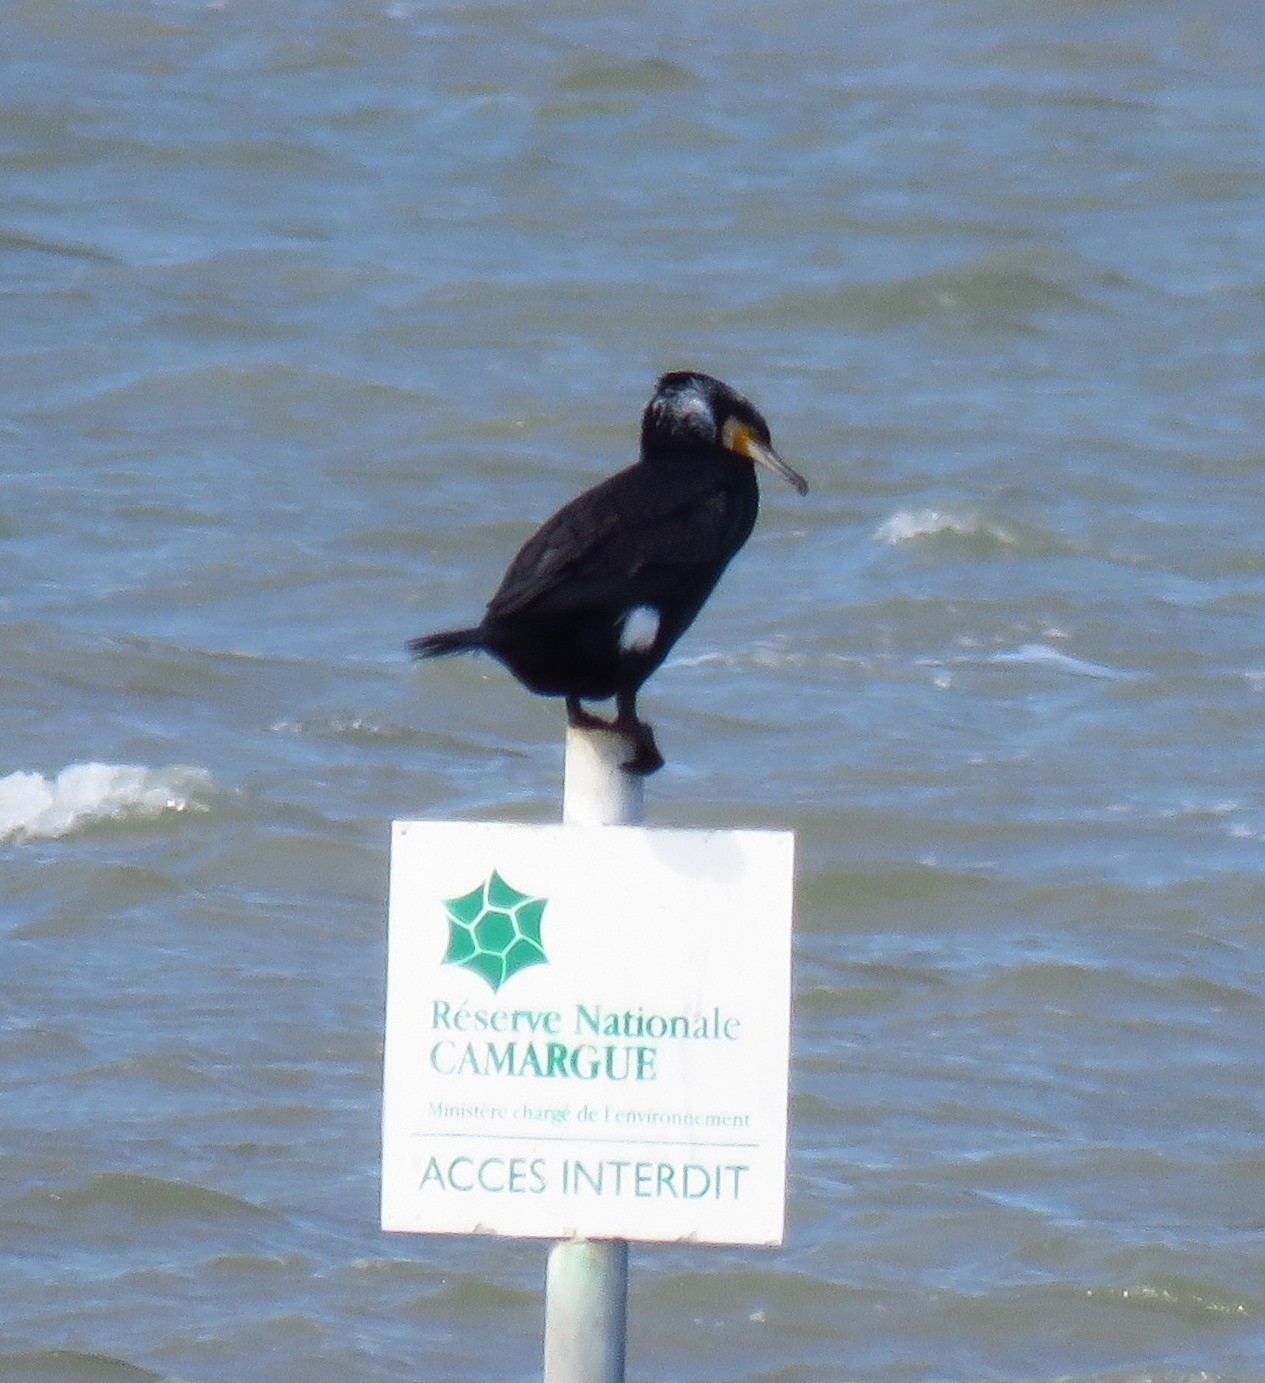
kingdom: Animalia
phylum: Chordata
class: Aves
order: Suliformes
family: Phalacrocoracidae
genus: Phalacrocorax
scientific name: Phalacrocorax carbo
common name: Great cormorant
